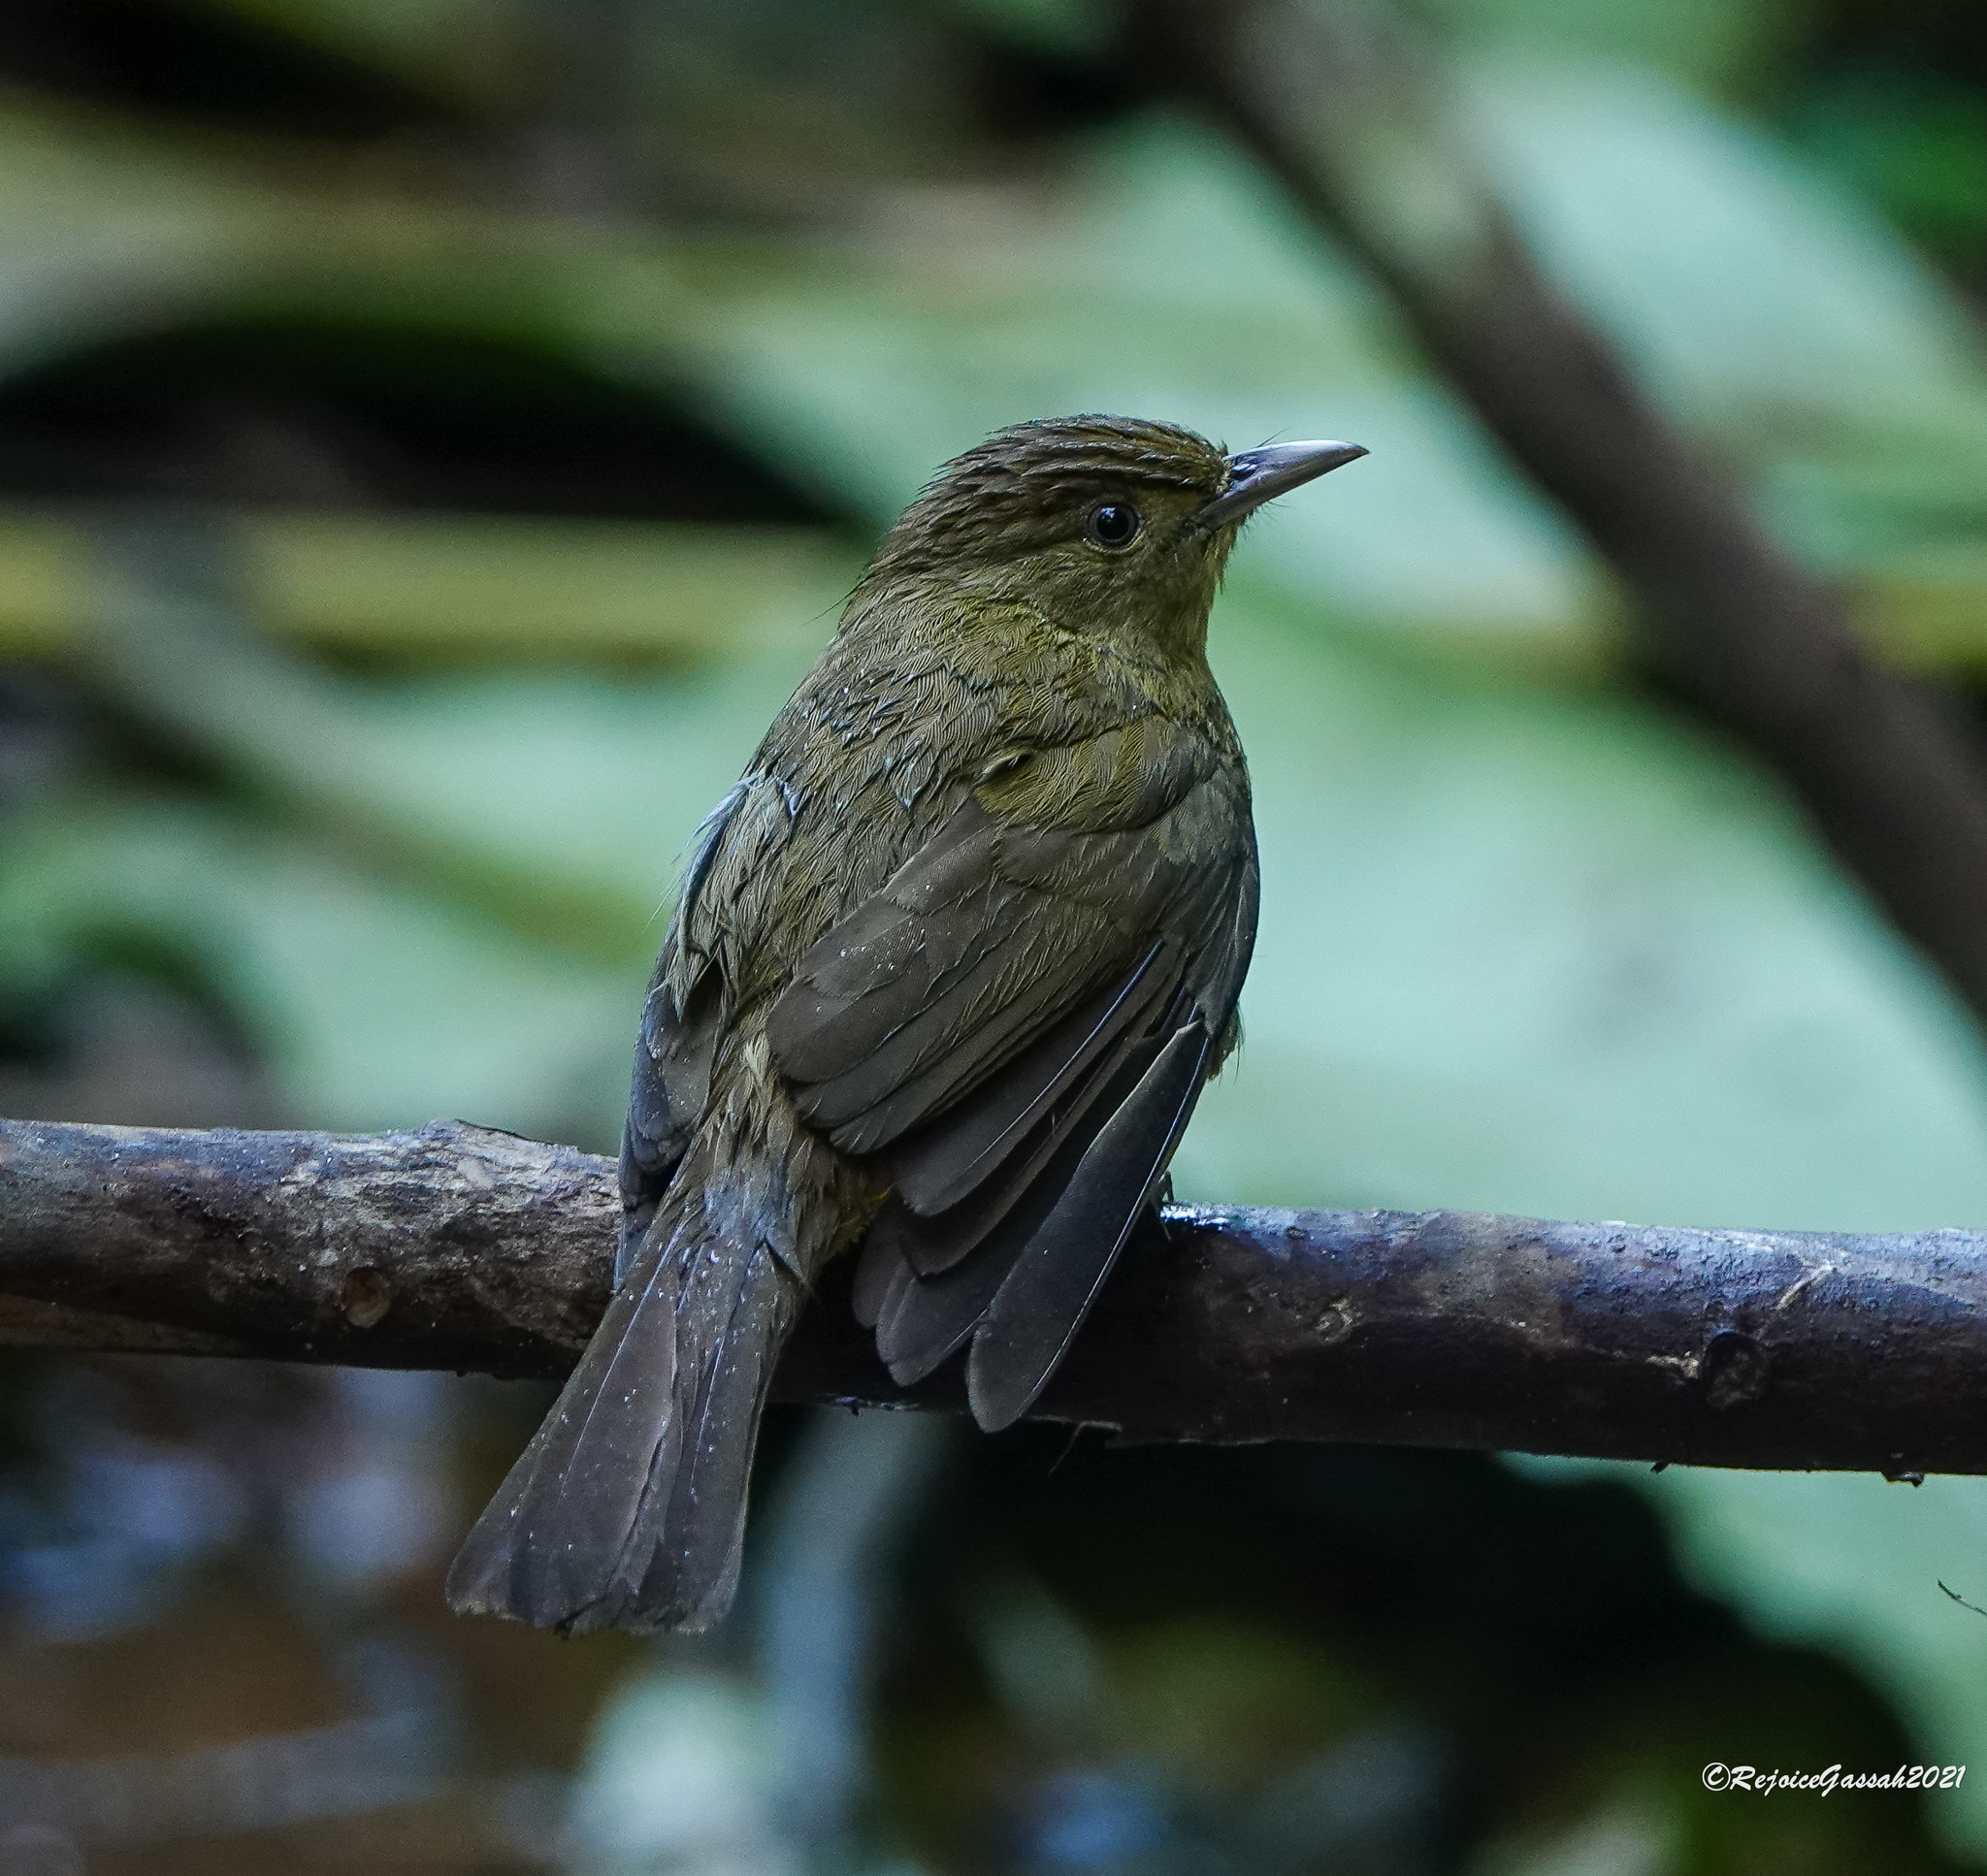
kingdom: Animalia
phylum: Chordata
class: Aves
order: Passeriformes
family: Pycnonotidae
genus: Iole
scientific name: Iole virescens
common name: Olive bulbul
